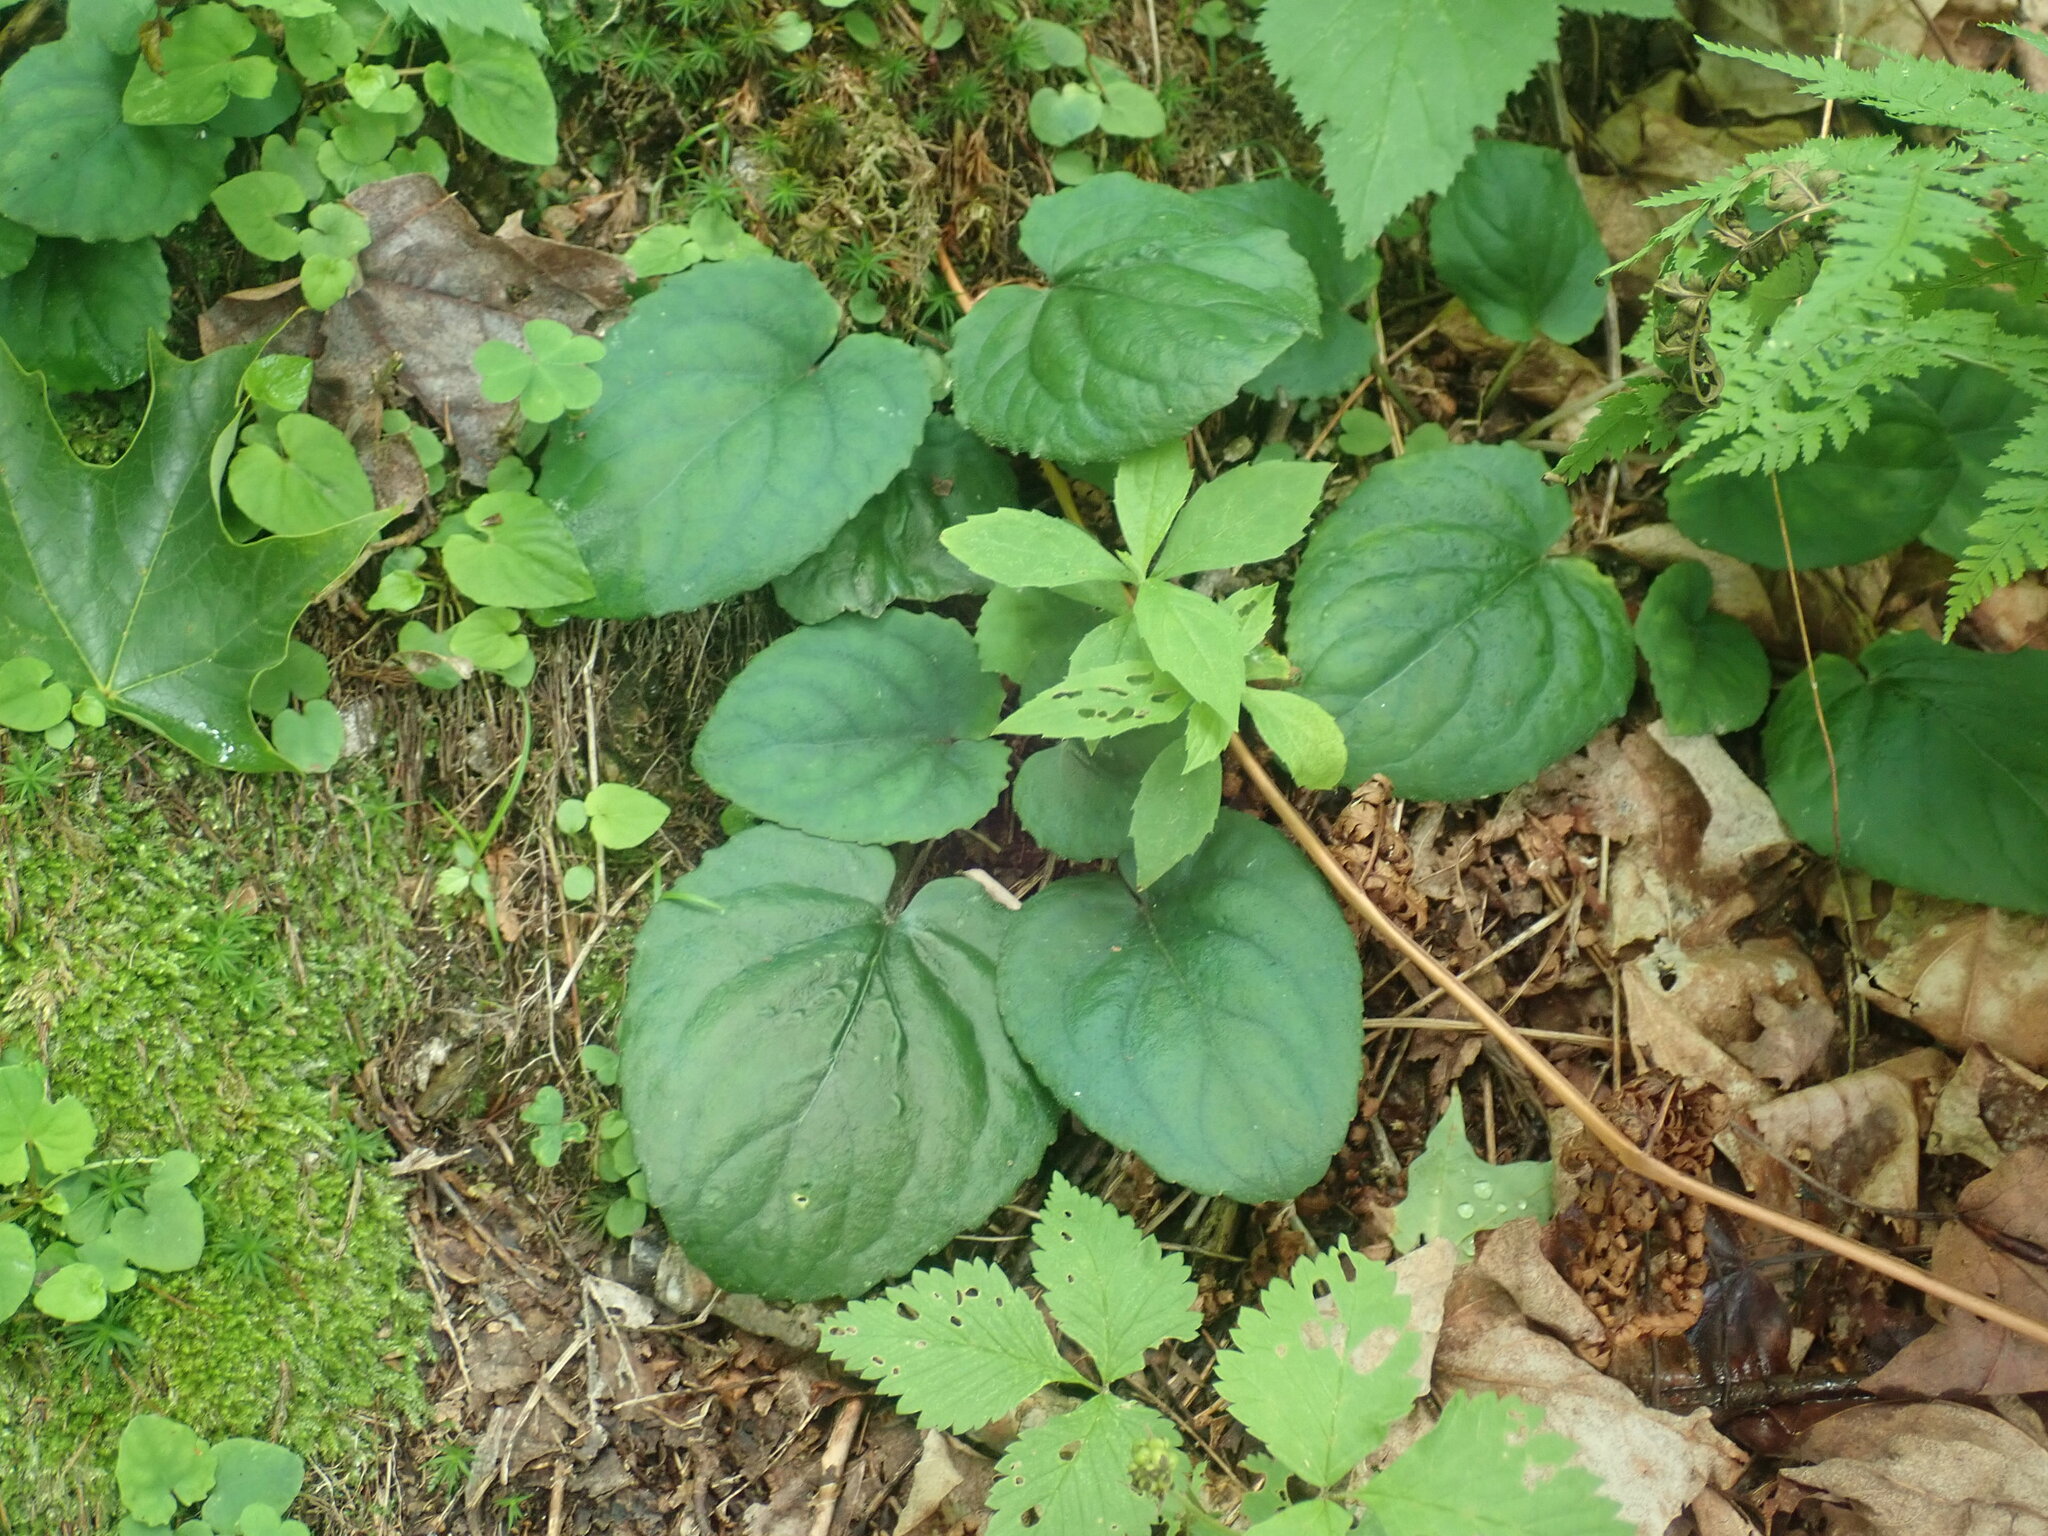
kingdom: Plantae
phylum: Tracheophyta
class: Magnoliopsida
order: Malpighiales
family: Violaceae
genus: Viola
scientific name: Viola rotundifolia
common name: Early yellow violet
